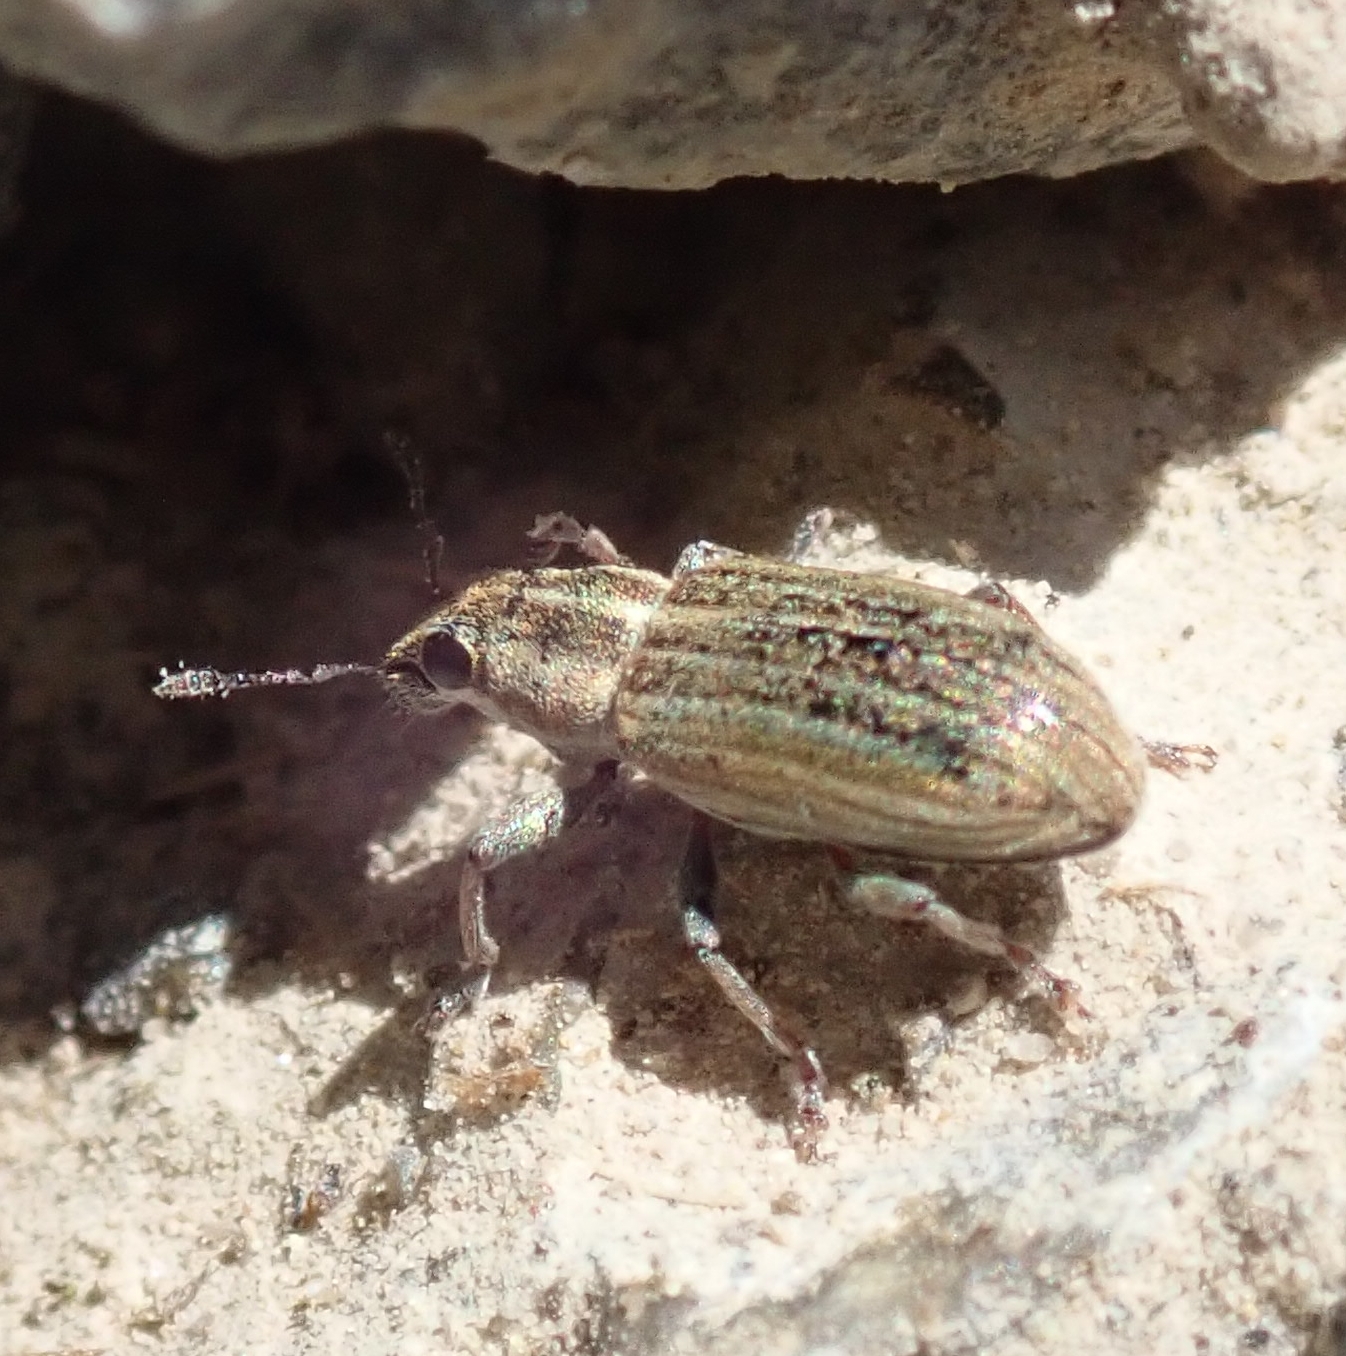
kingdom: Animalia
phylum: Arthropoda
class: Insecta
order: Coleoptera
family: Curculionidae
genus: Sitona
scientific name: Sitona lineatus
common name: Weevil
